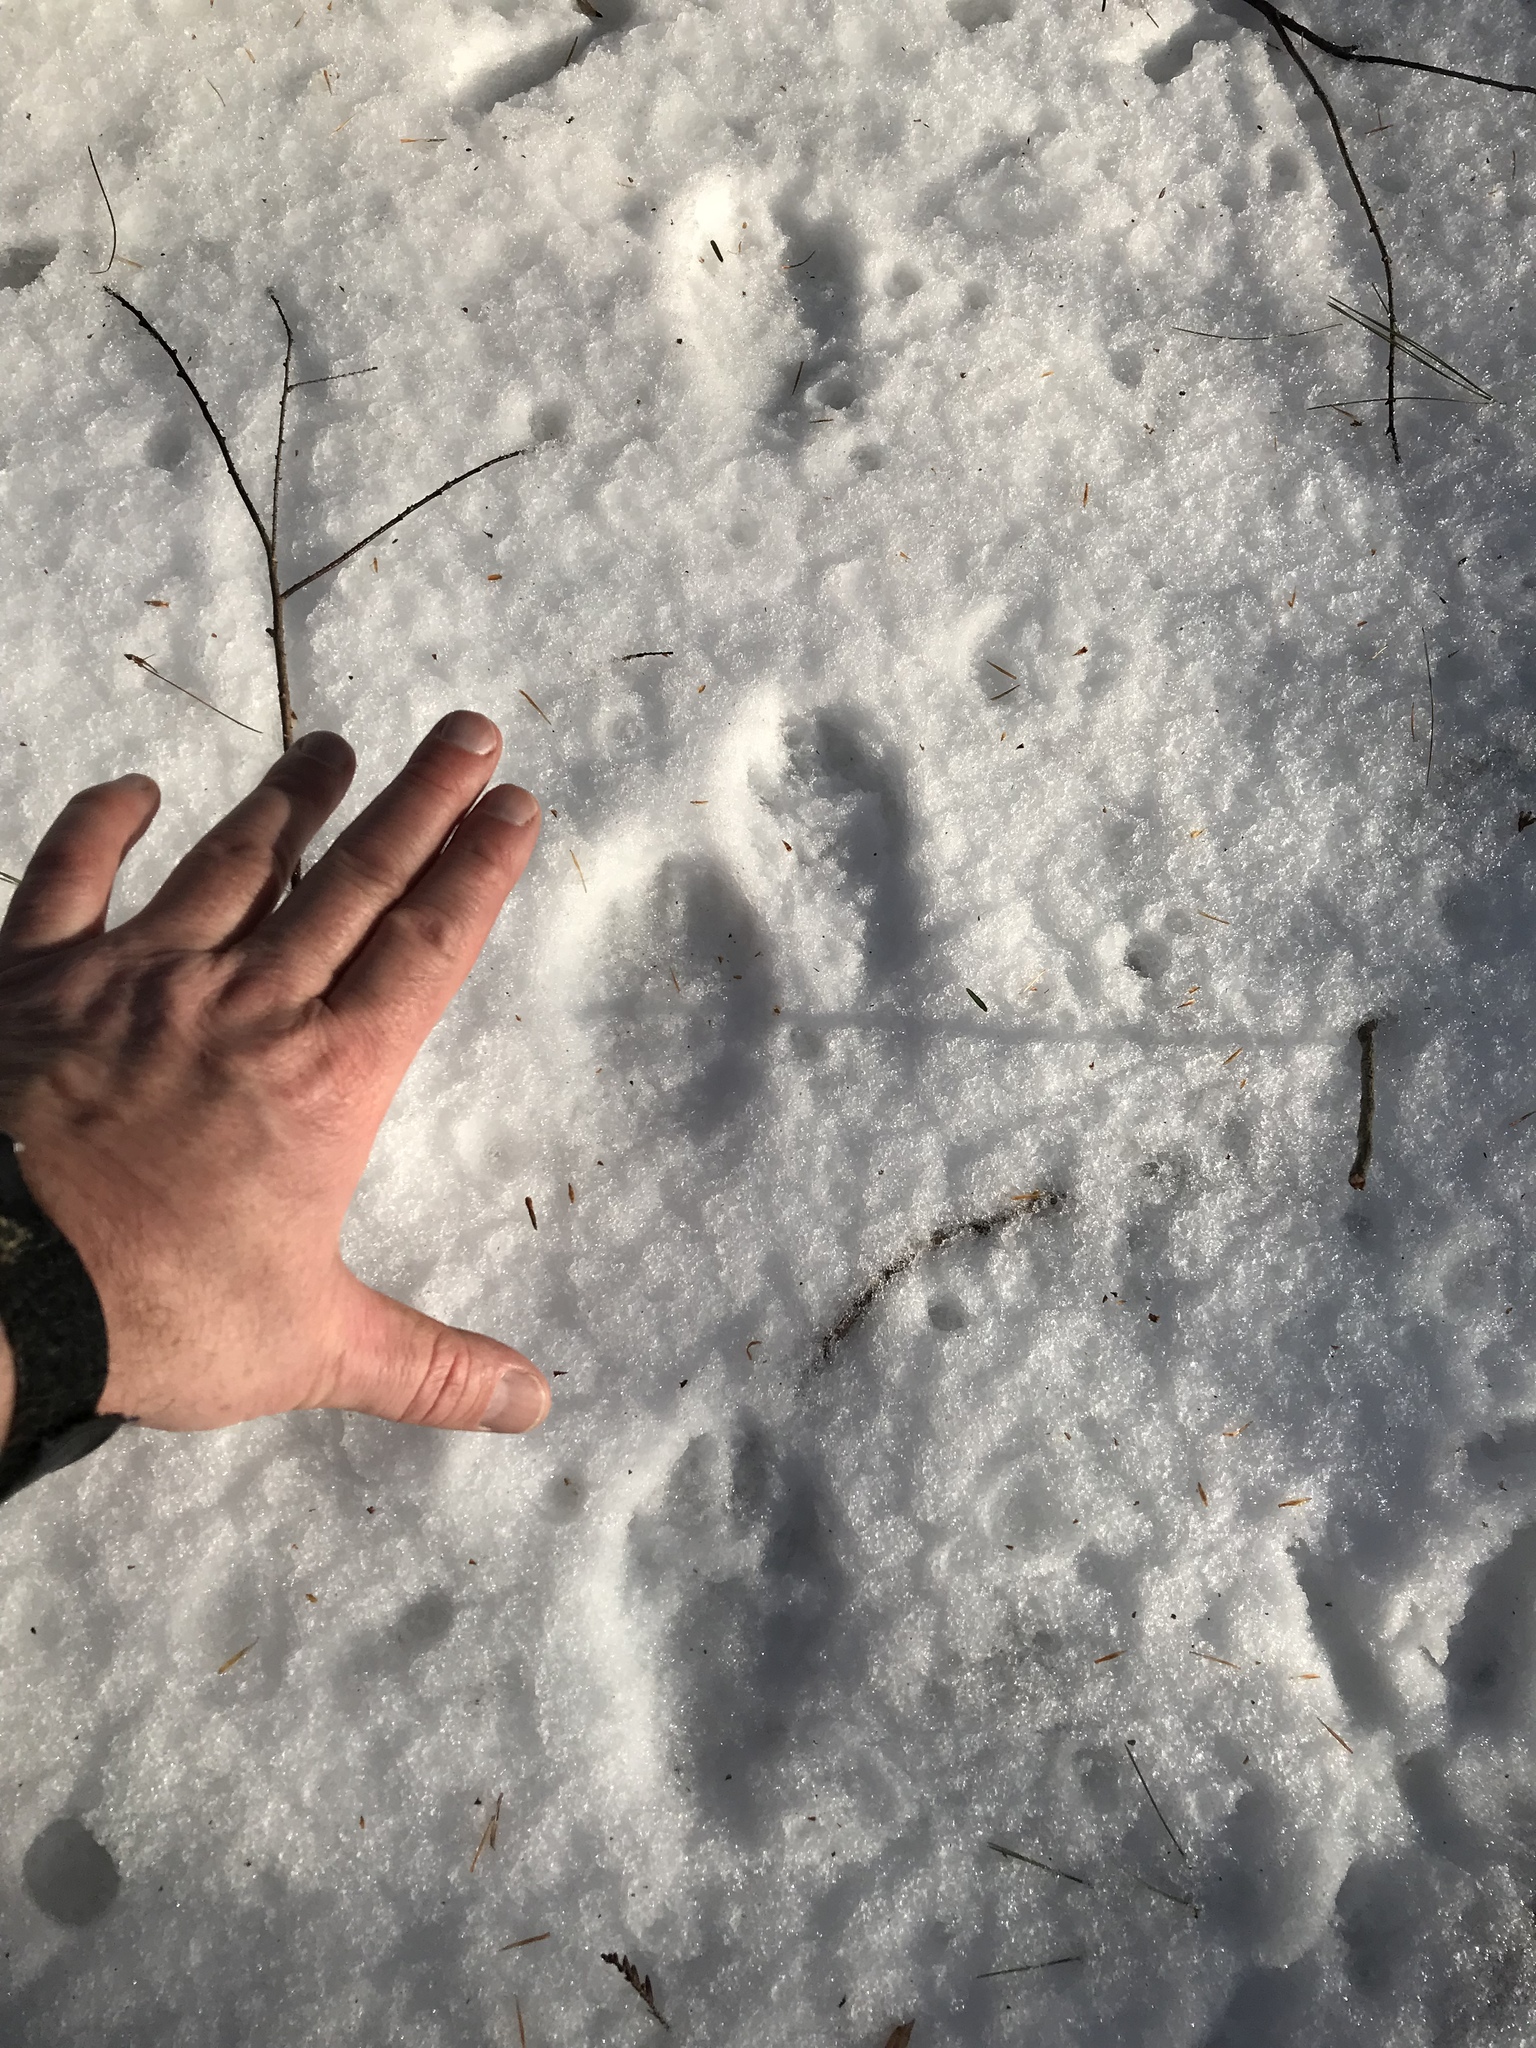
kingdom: Animalia
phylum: Chordata
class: Mammalia
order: Carnivora
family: Mustelidae
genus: Pekania
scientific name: Pekania pennanti
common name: Fisher
